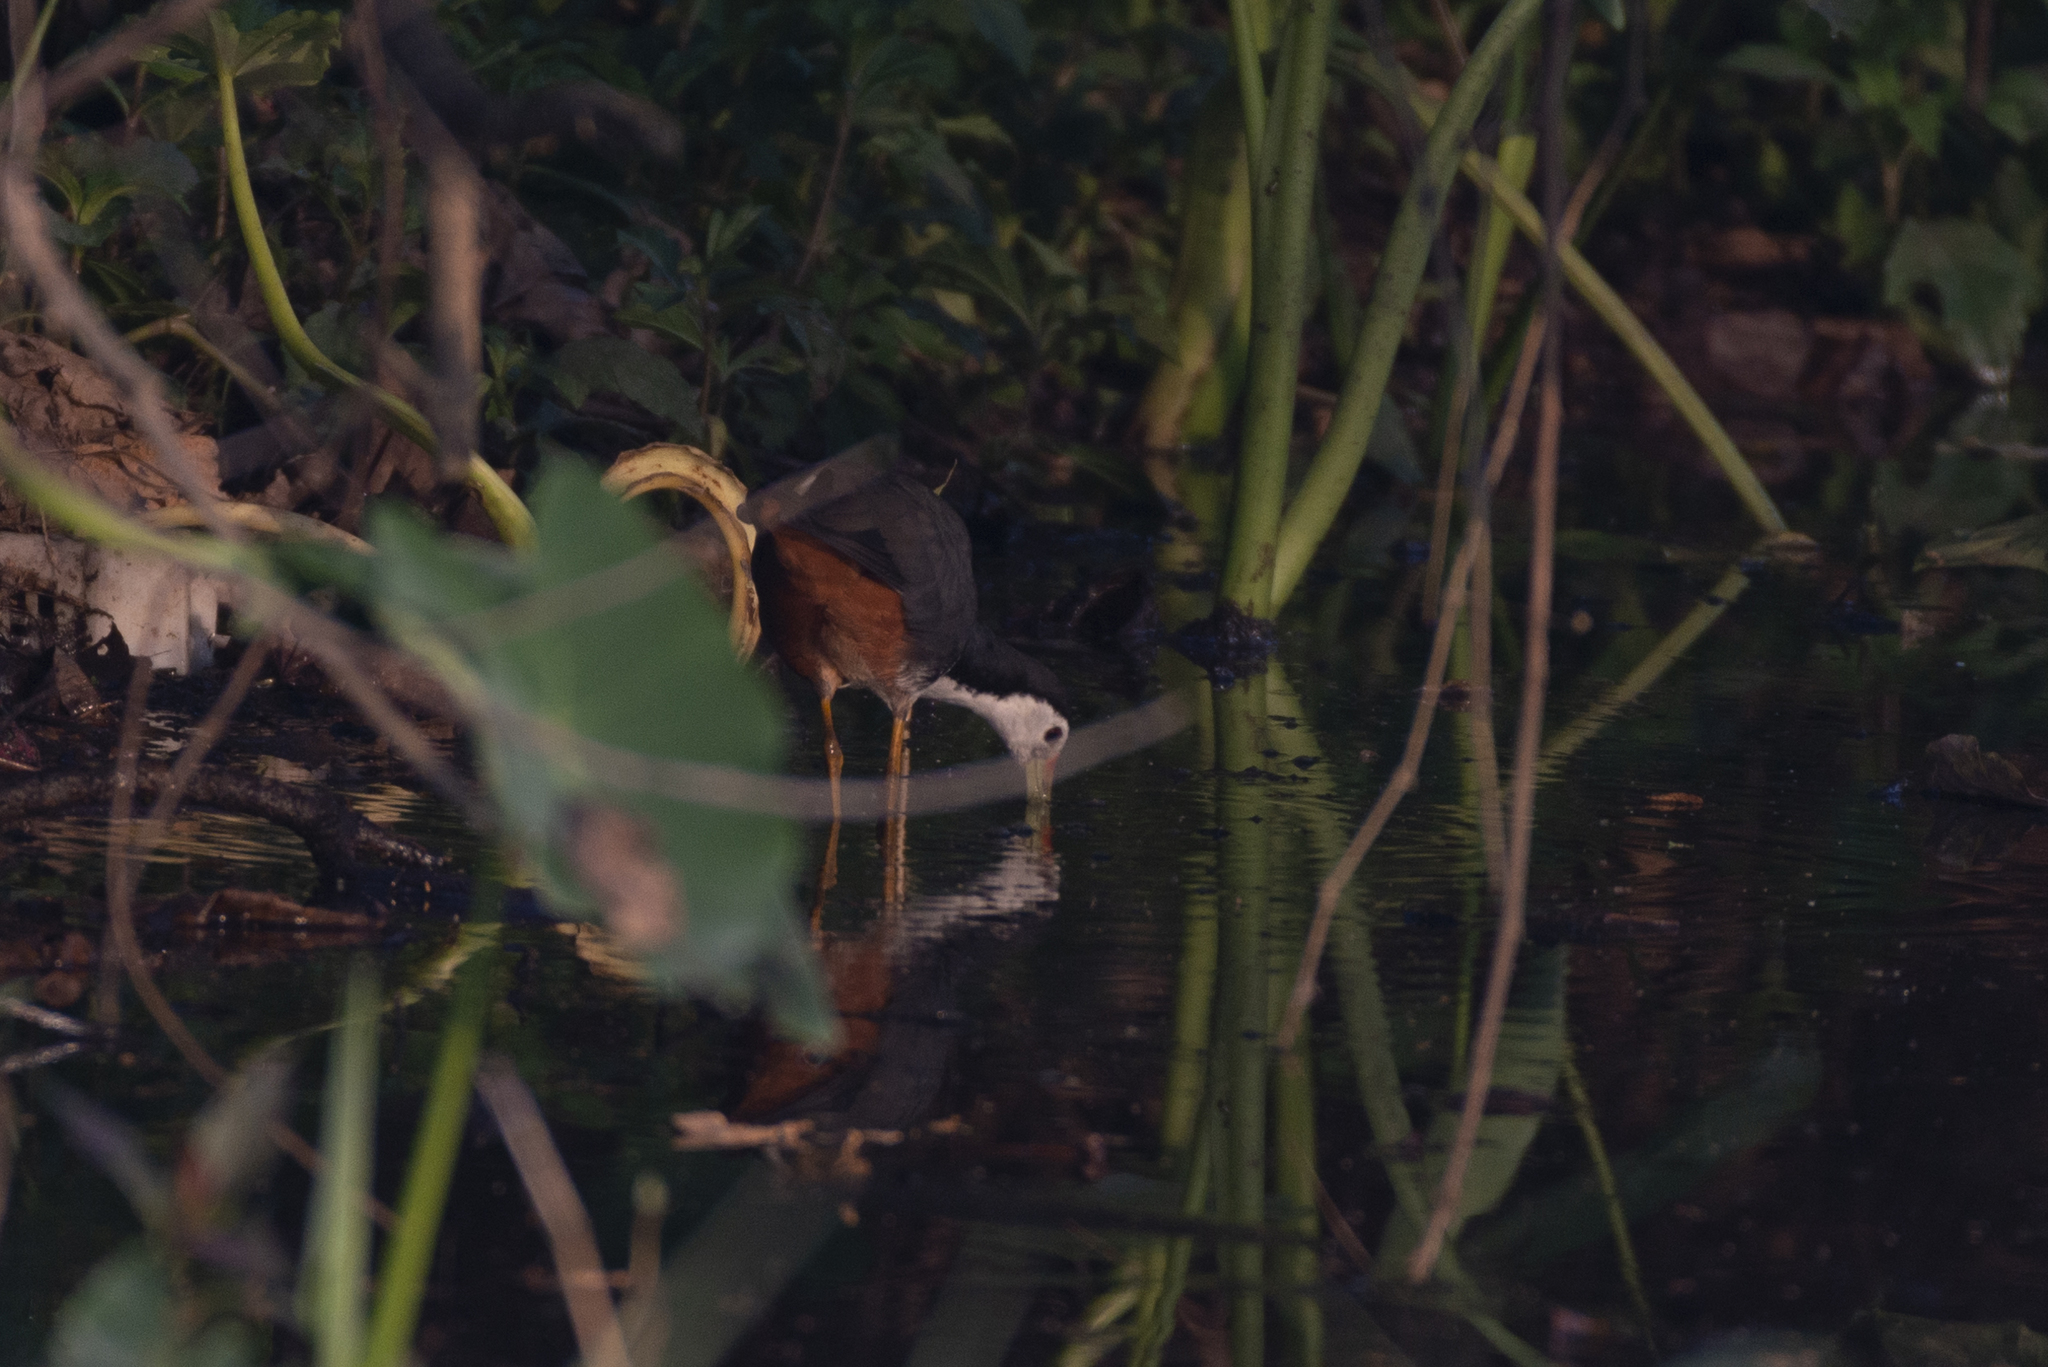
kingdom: Animalia
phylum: Chordata
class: Aves
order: Gruiformes
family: Rallidae
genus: Amaurornis
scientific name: Amaurornis phoenicurus
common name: White-breasted waterhen
